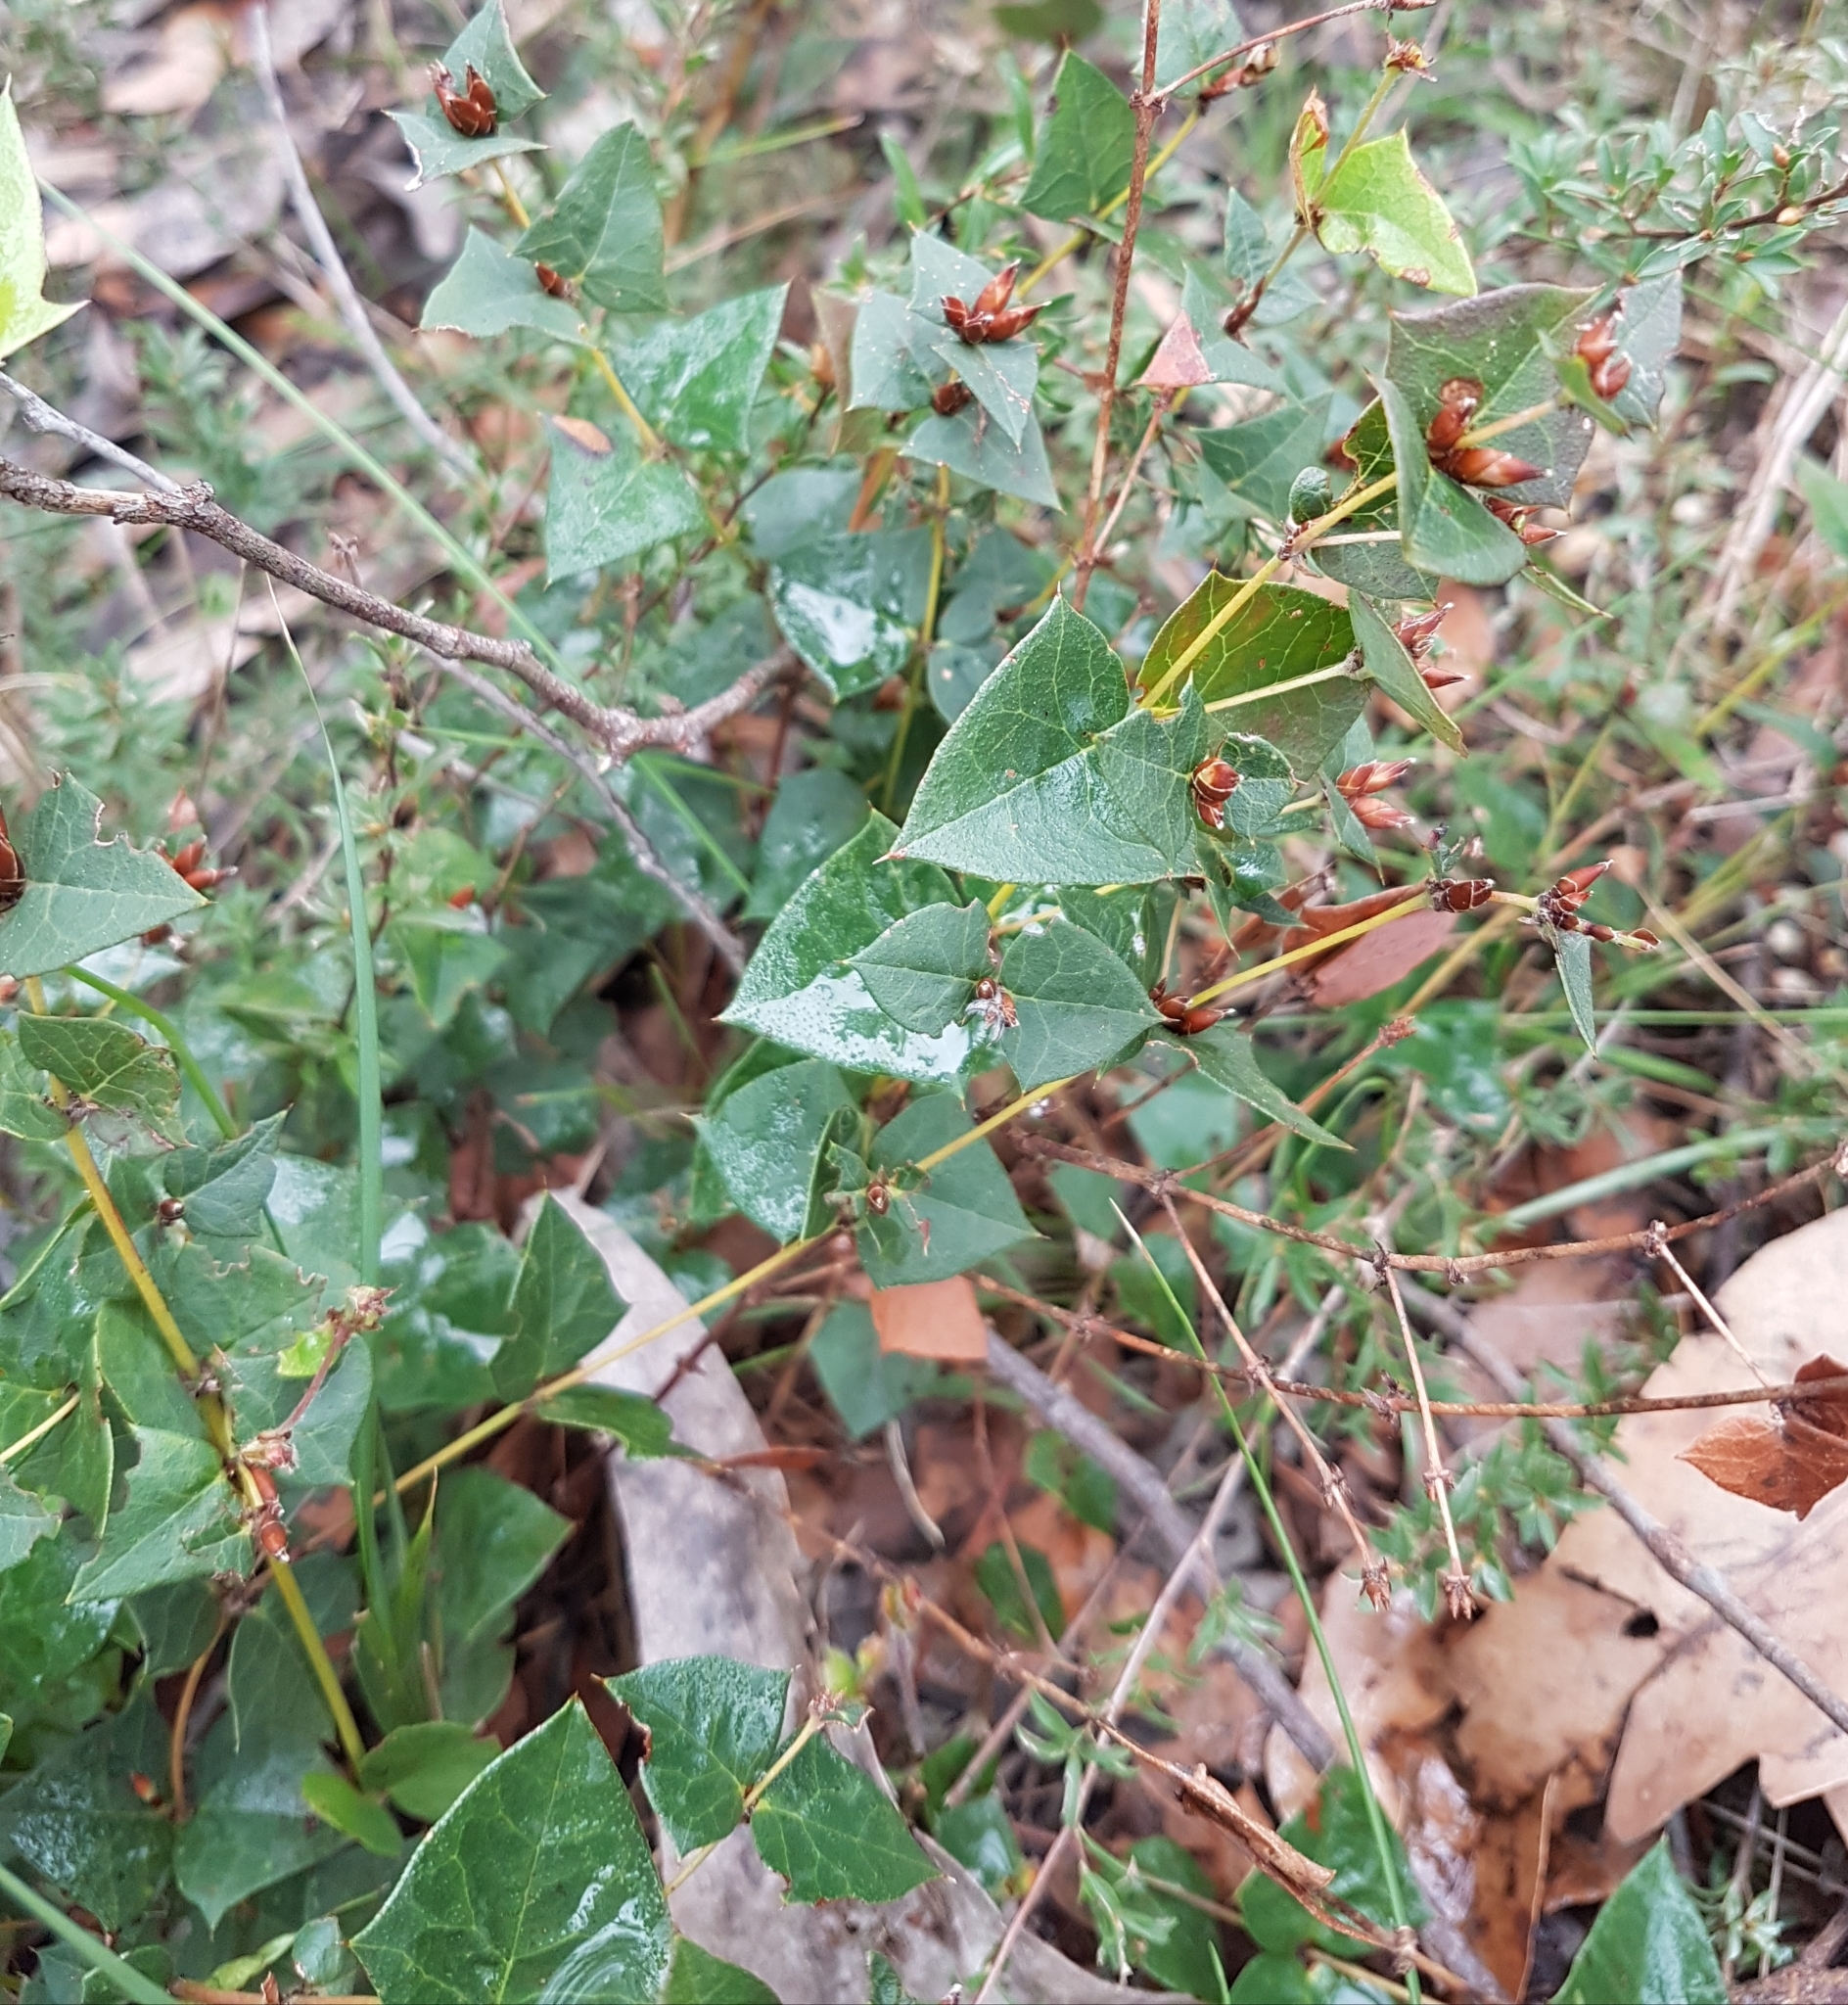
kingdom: Plantae
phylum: Tracheophyta
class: Magnoliopsida
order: Fabales
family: Fabaceae
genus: Platylobium
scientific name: Platylobium obtusangulum
